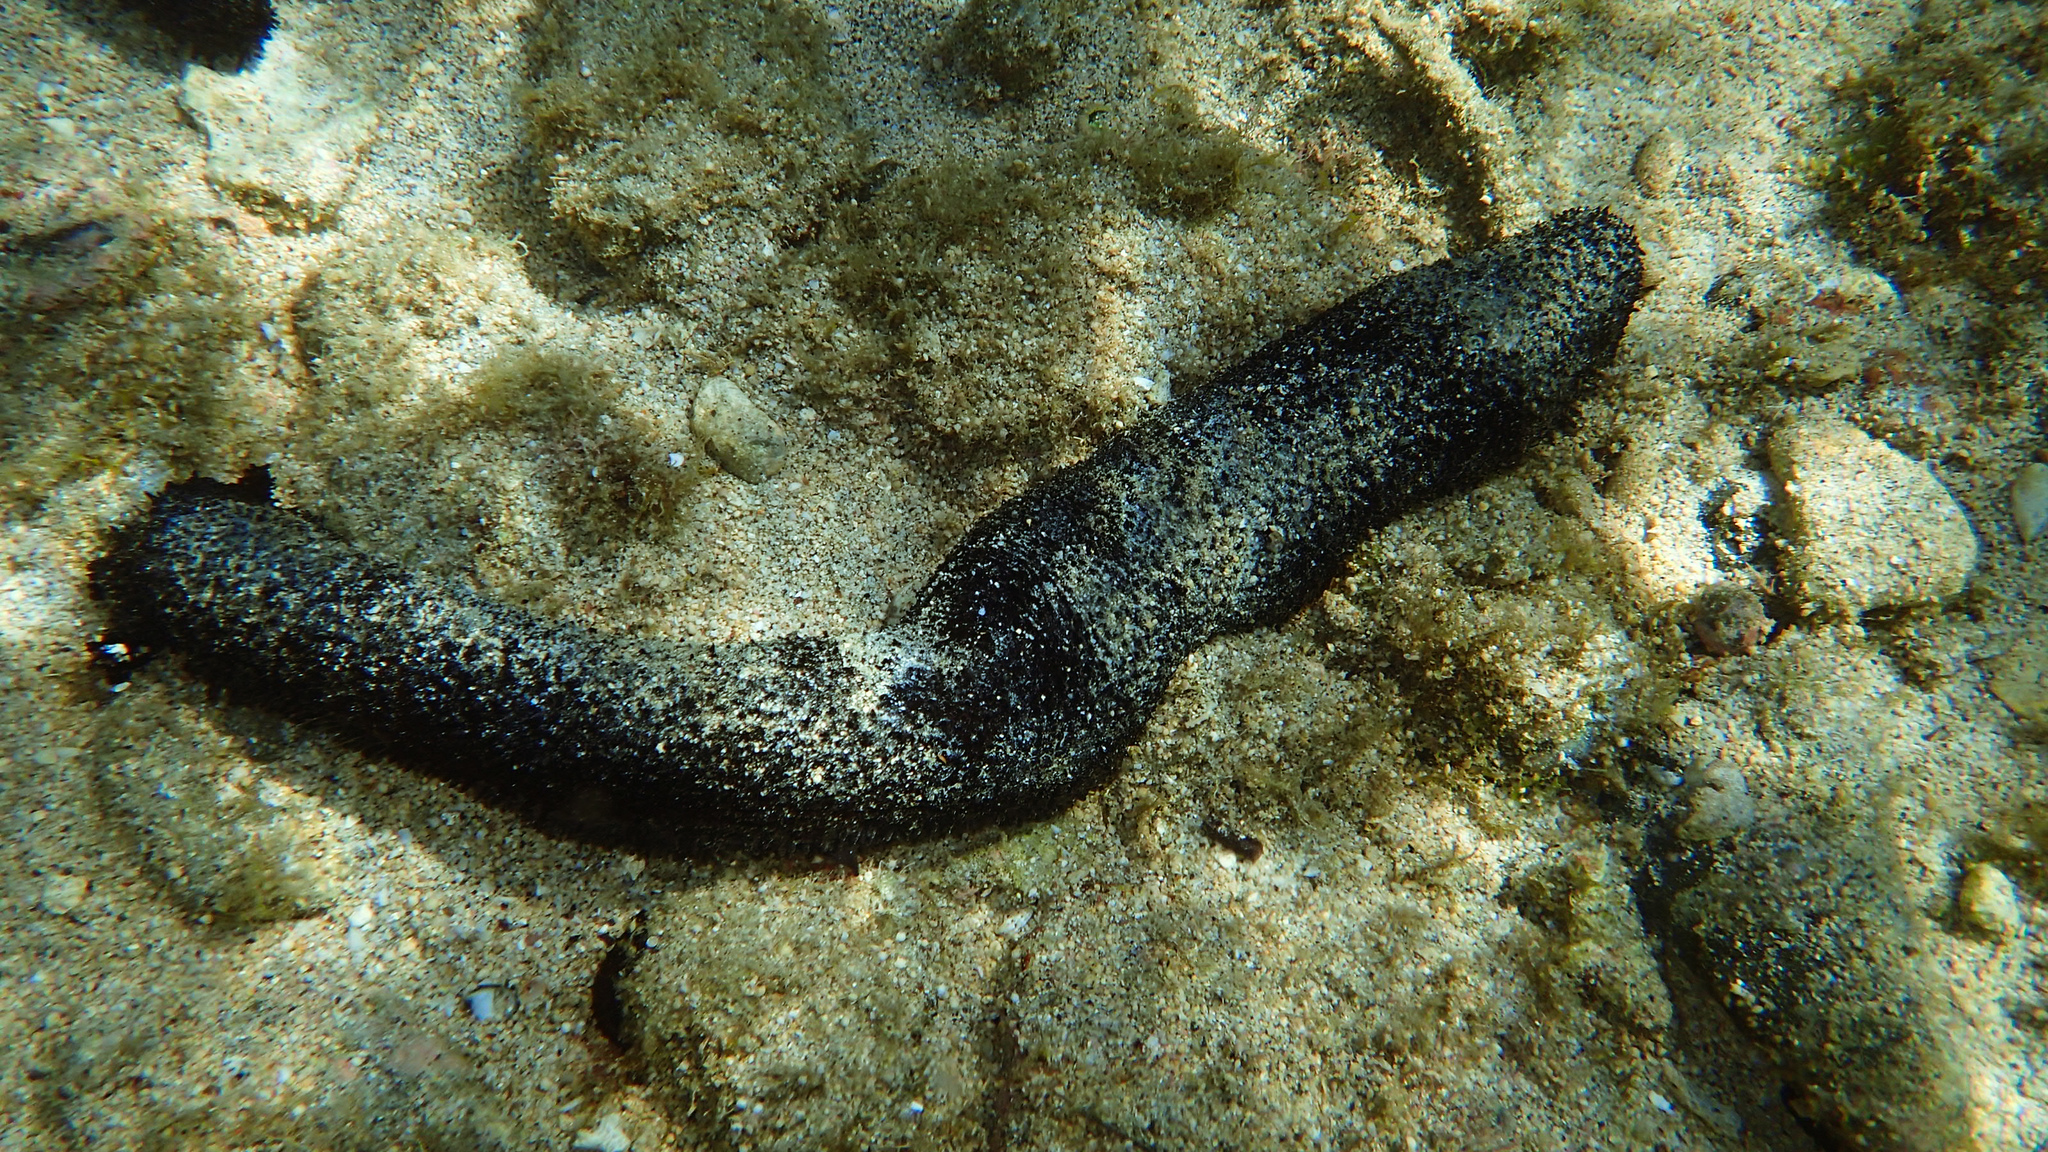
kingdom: Animalia
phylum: Echinodermata
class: Holothuroidea
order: Holothuriida
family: Holothuriidae
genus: Holothuria
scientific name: Holothuria leucospilota
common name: White thread fish
